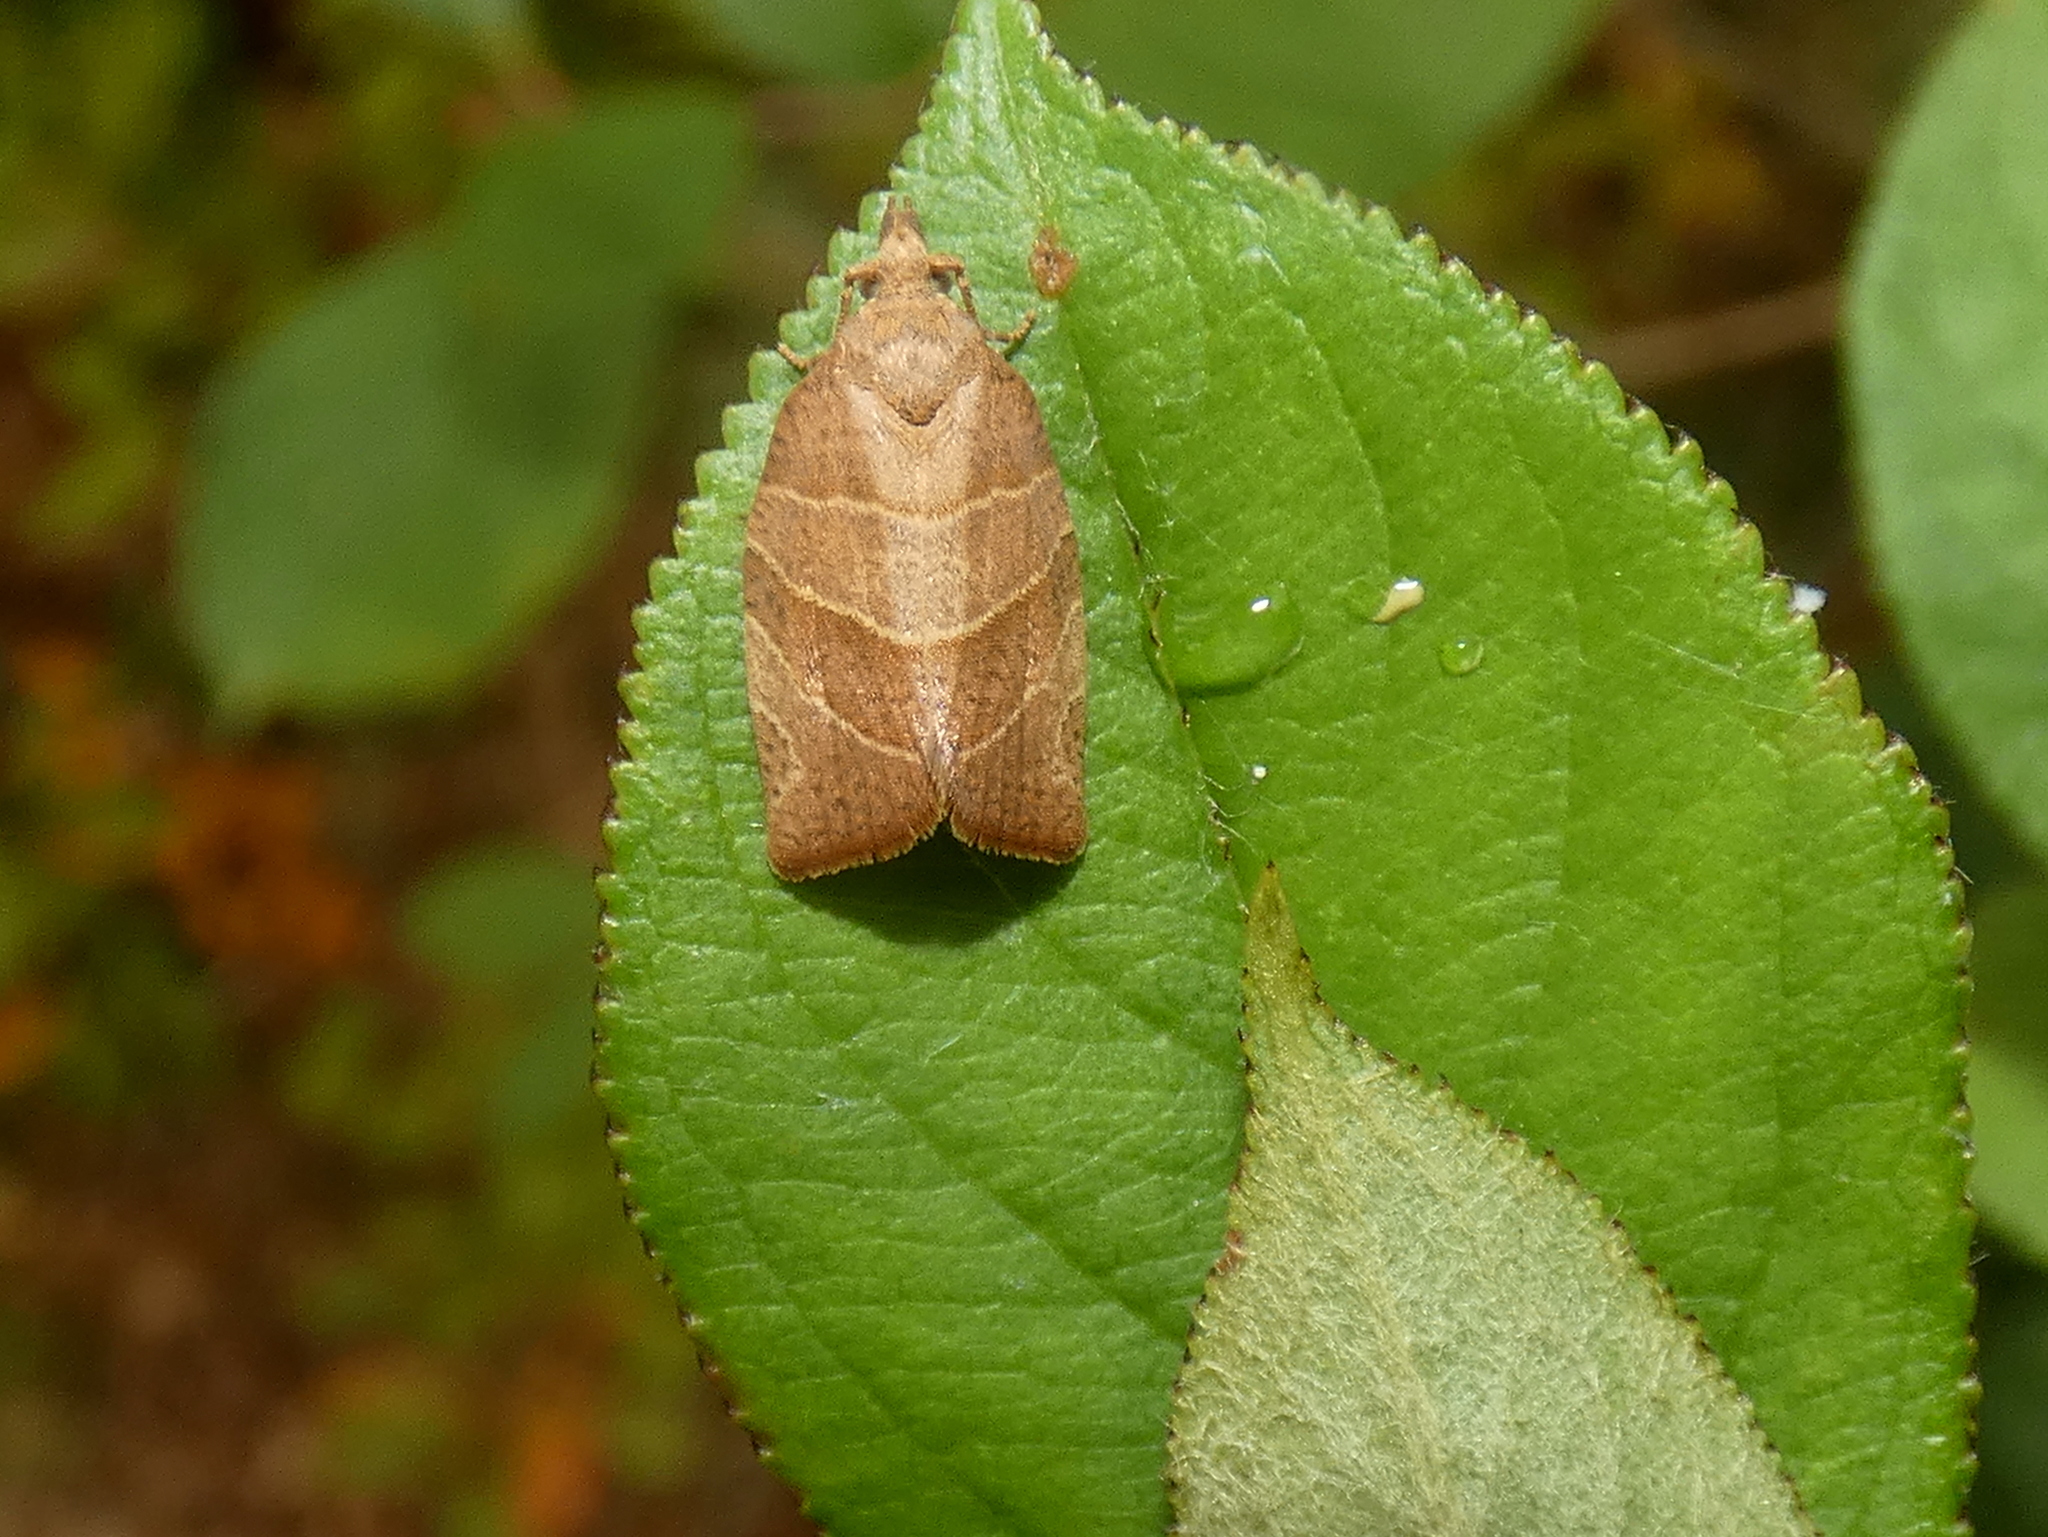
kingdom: Animalia
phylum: Arthropoda
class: Insecta
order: Lepidoptera
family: Tortricidae
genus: Pandemis
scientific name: Pandemis limitata
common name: Three-lined leafroller moth
